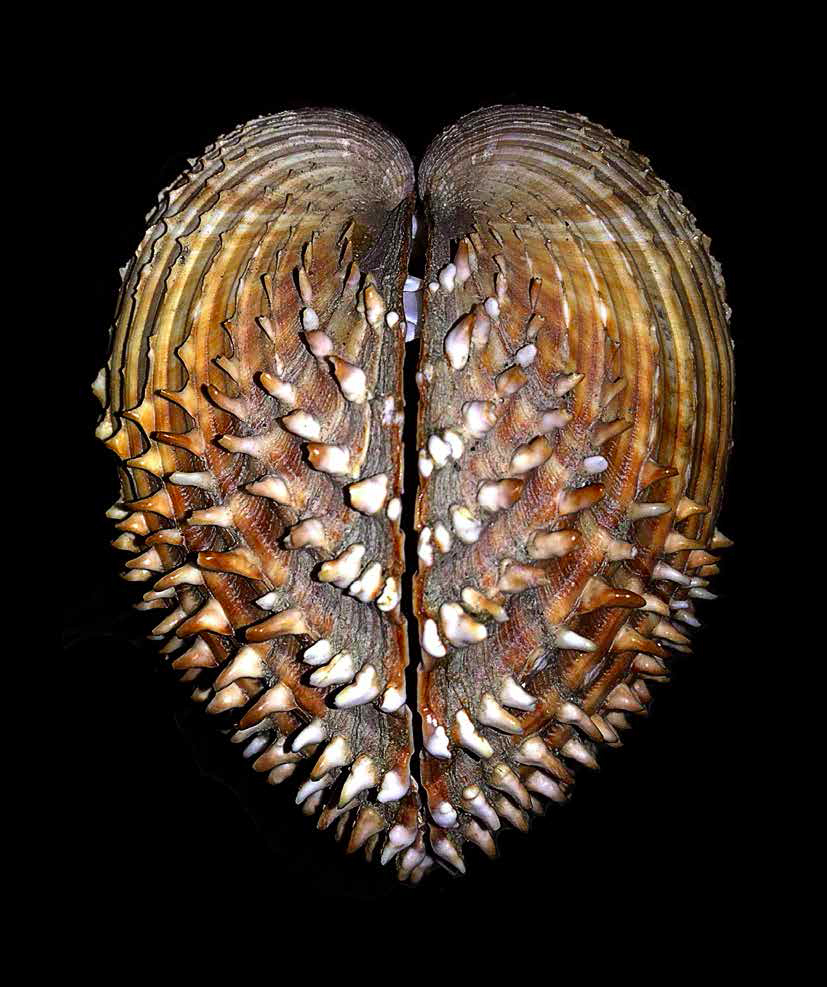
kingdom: Animalia
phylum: Mollusca
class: Bivalvia
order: Cardiida
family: Cardiidae
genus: Acanthocardia
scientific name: Acanthocardia aculeata
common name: Spiny cockle
